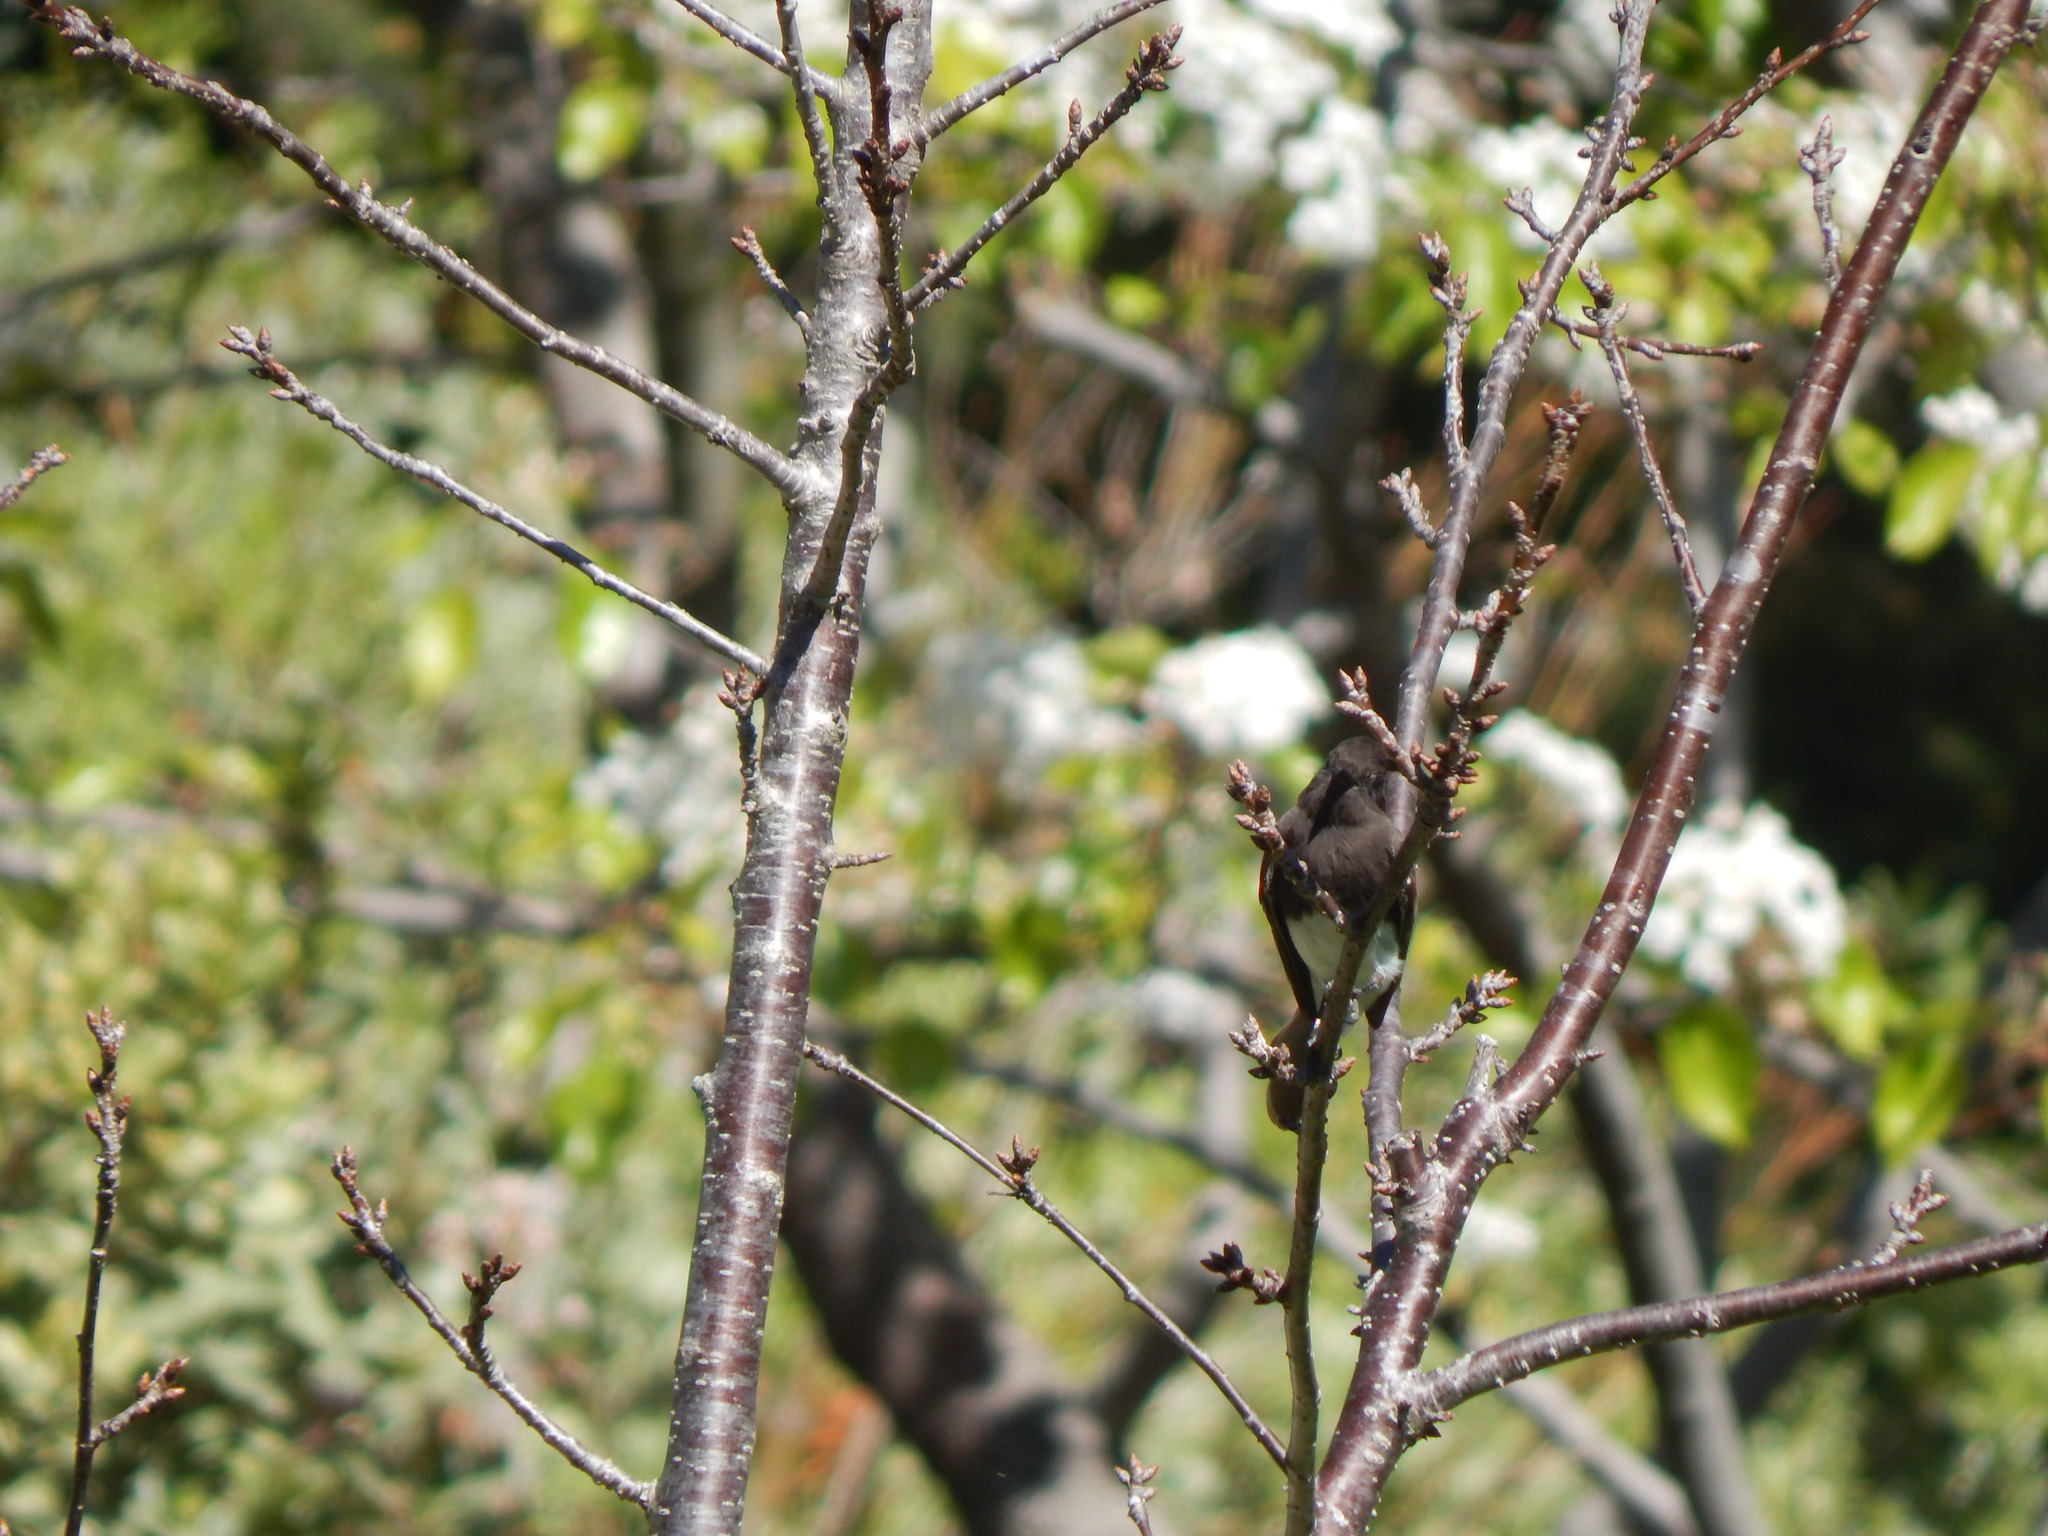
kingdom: Animalia
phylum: Chordata
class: Aves
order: Passeriformes
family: Tyrannidae
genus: Sayornis
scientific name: Sayornis nigricans
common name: Black phoebe
